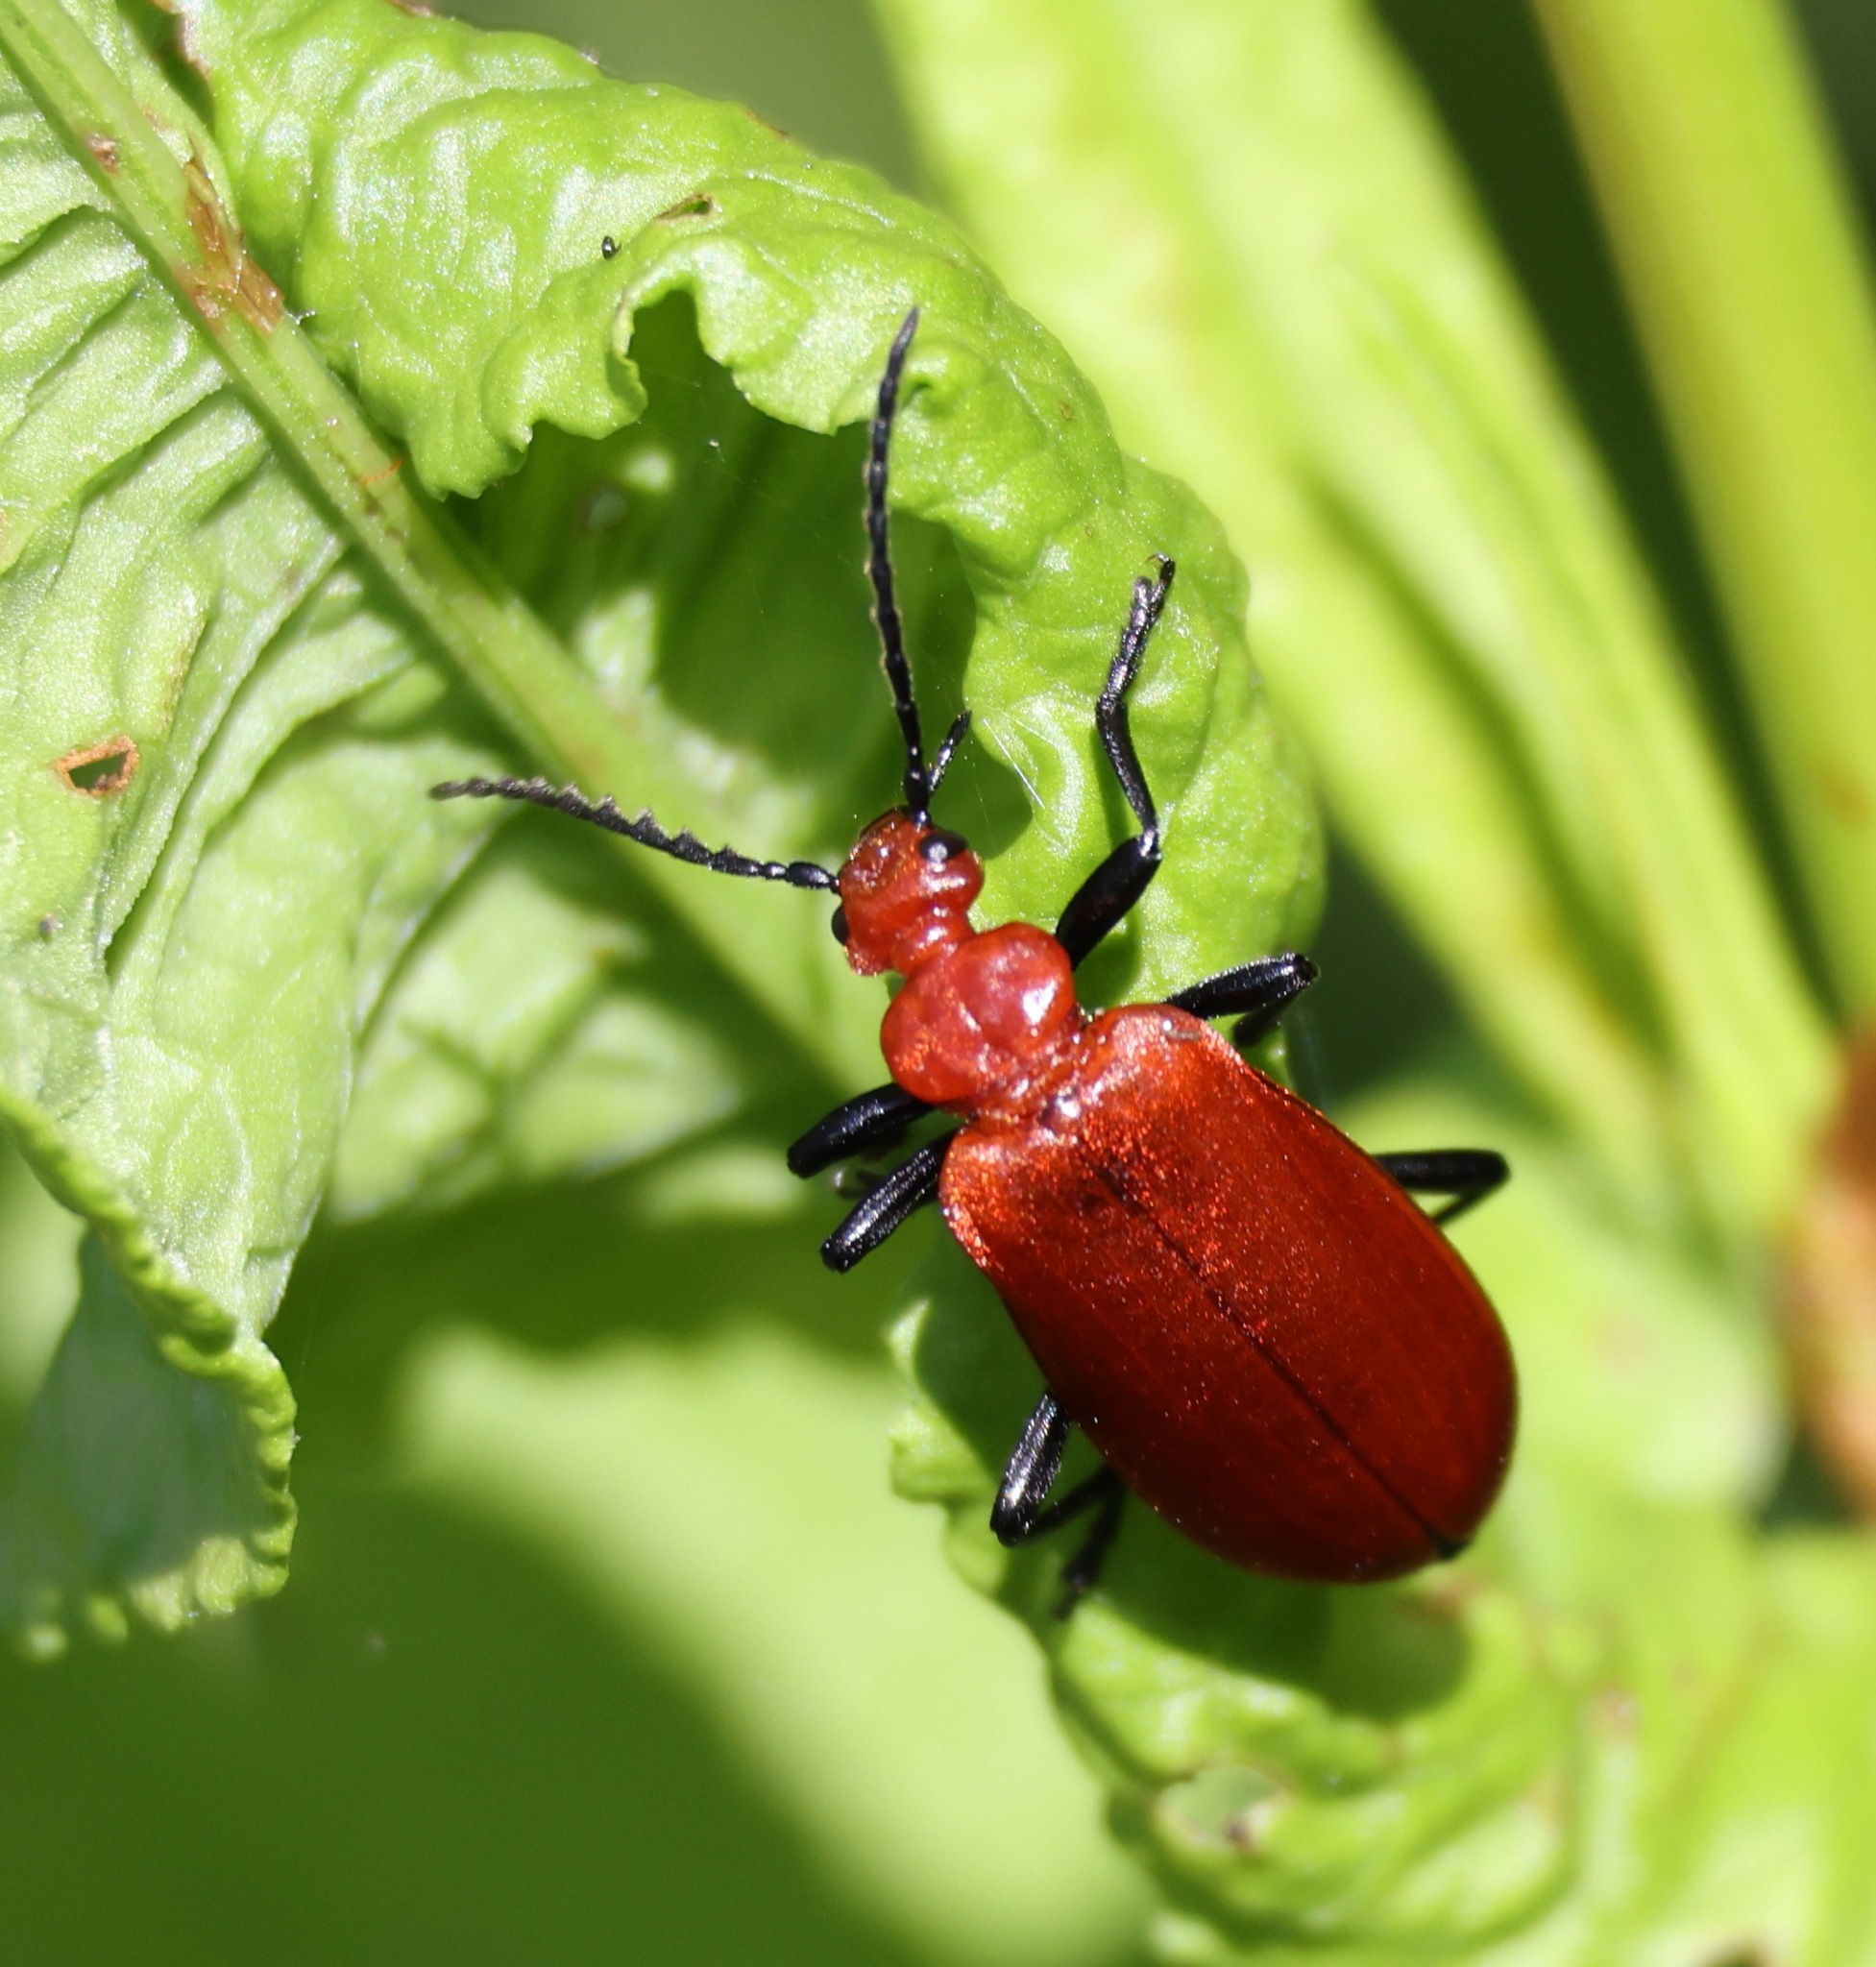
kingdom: Animalia
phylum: Arthropoda
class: Insecta
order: Coleoptera
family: Pyrochroidae
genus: Pyrochroa
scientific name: Pyrochroa serraticornis
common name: Red-headed cardinal beetle
